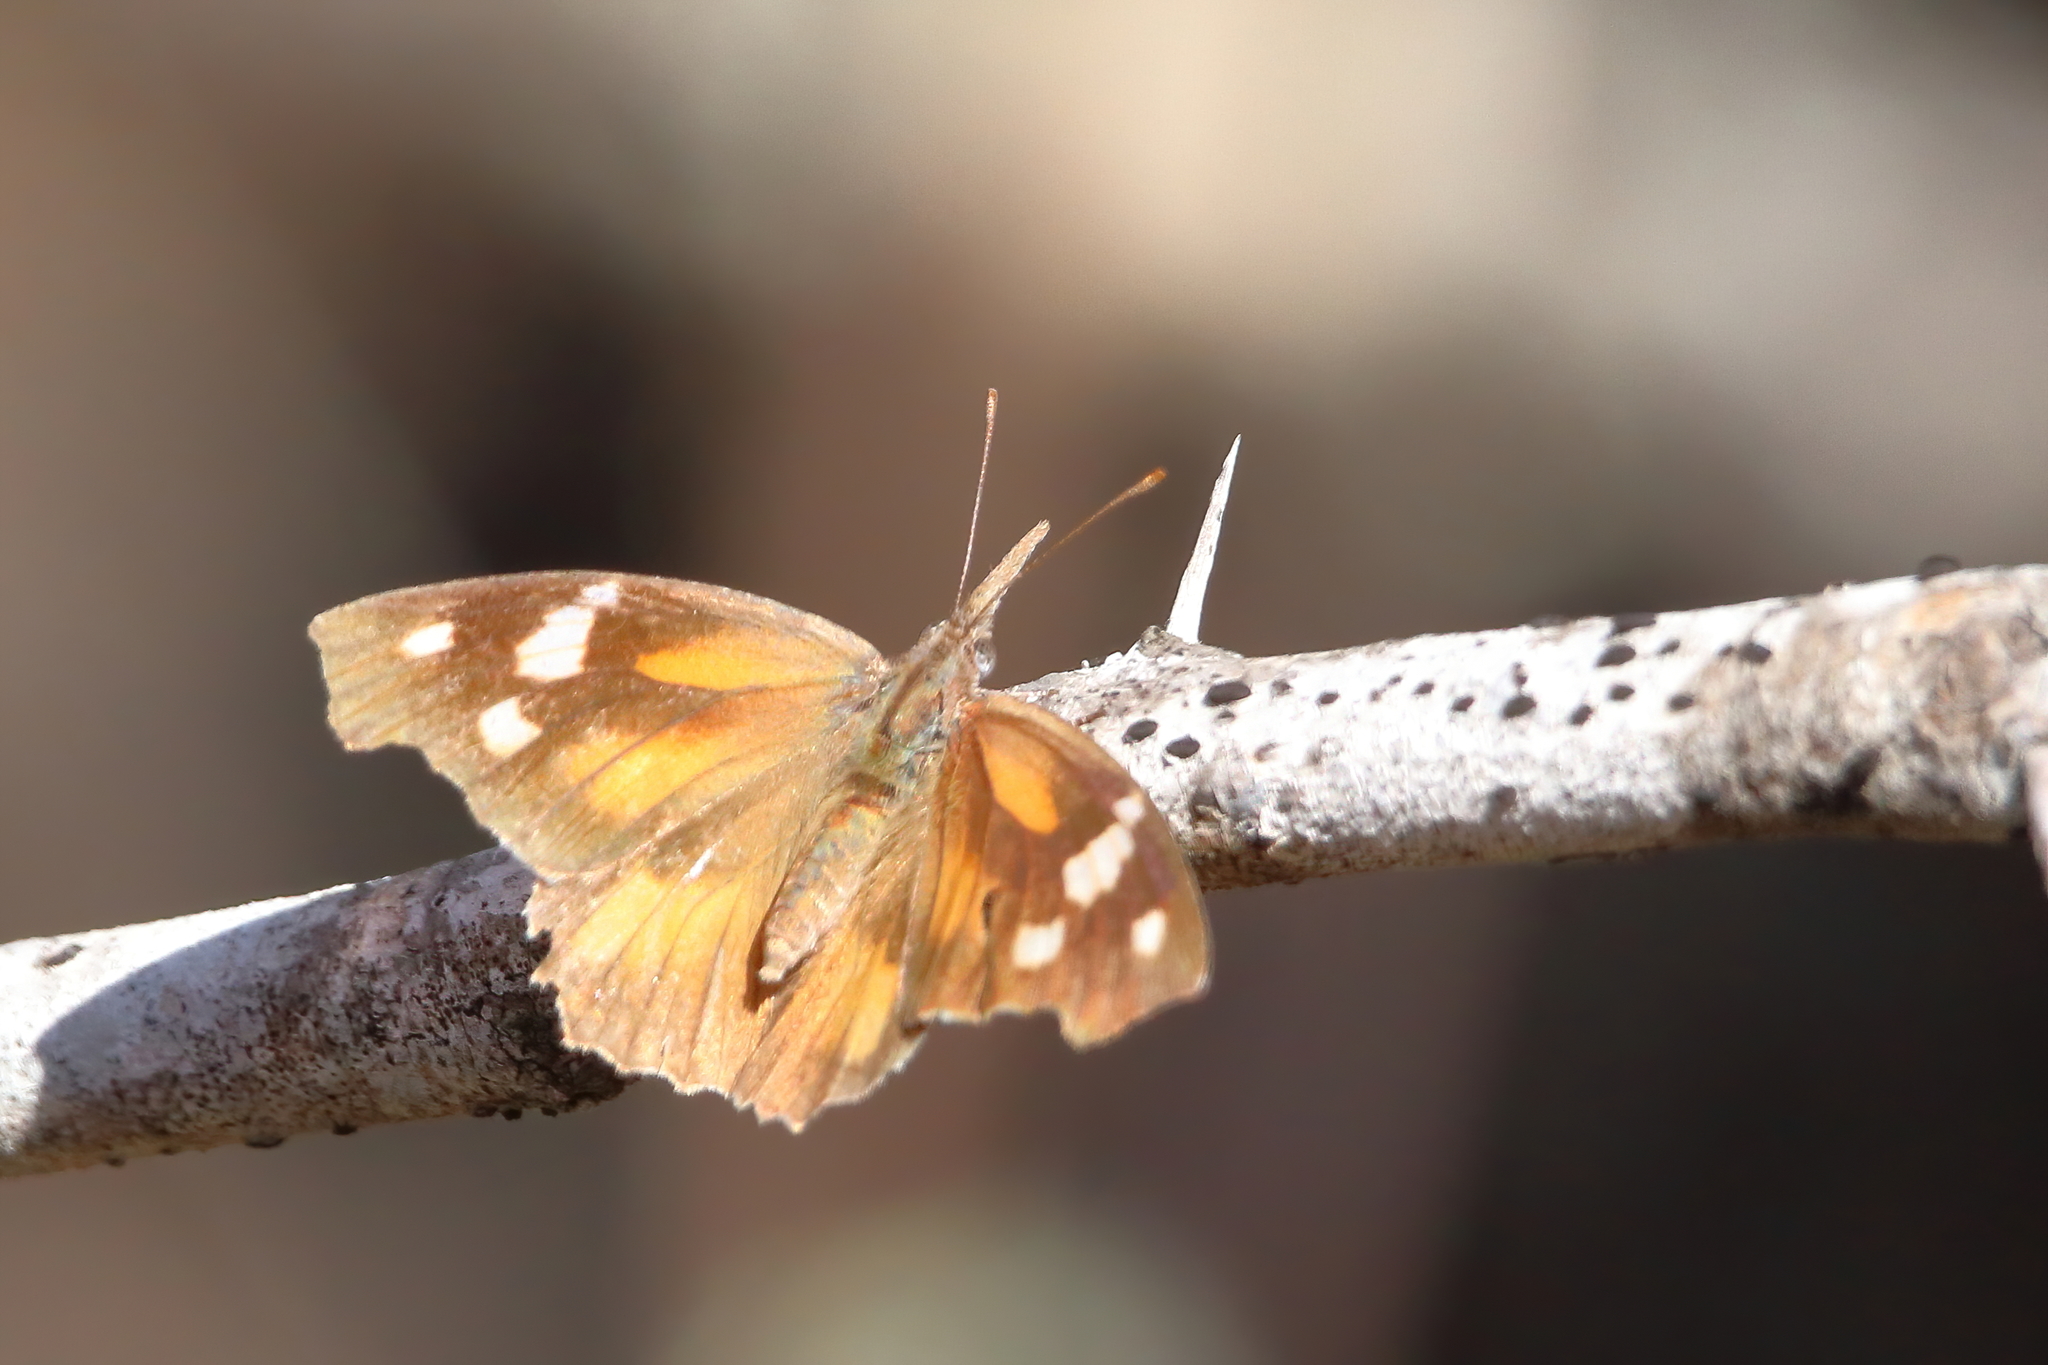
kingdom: Animalia
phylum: Arthropoda
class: Insecta
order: Lepidoptera
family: Nymphalidae
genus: Libytheana
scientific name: Libytheana carinenta
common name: American snout
